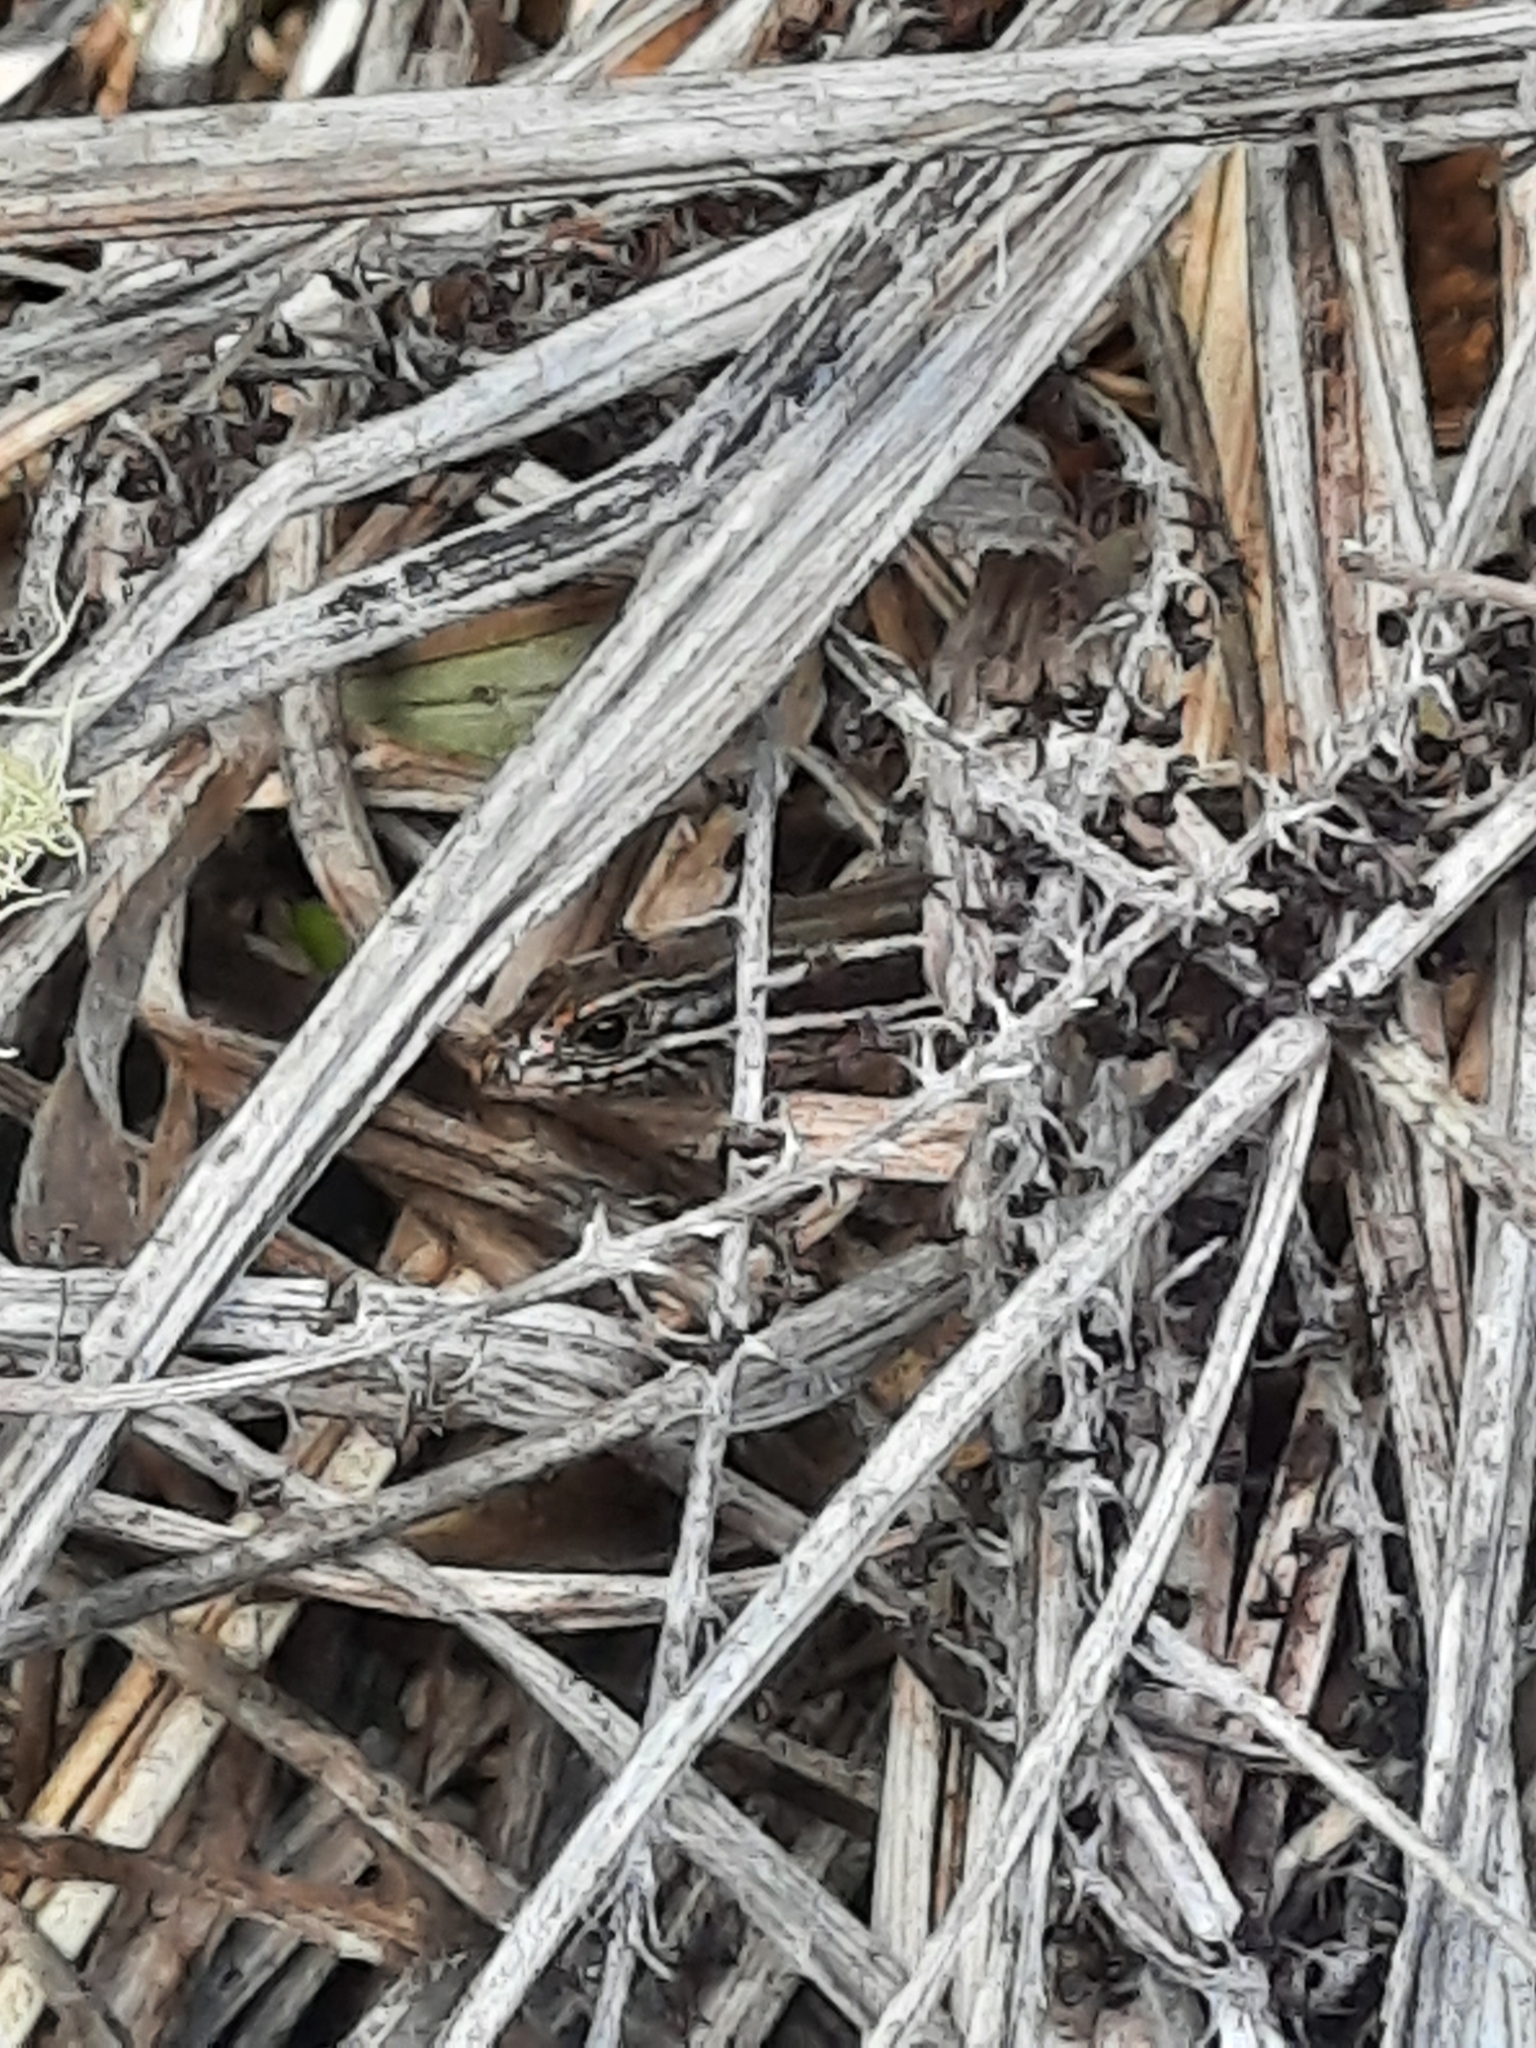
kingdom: Animalia
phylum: Chordata
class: Squamata
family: Scincidae
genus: Oligosoma
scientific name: Oligosoma moco
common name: Moco skink
